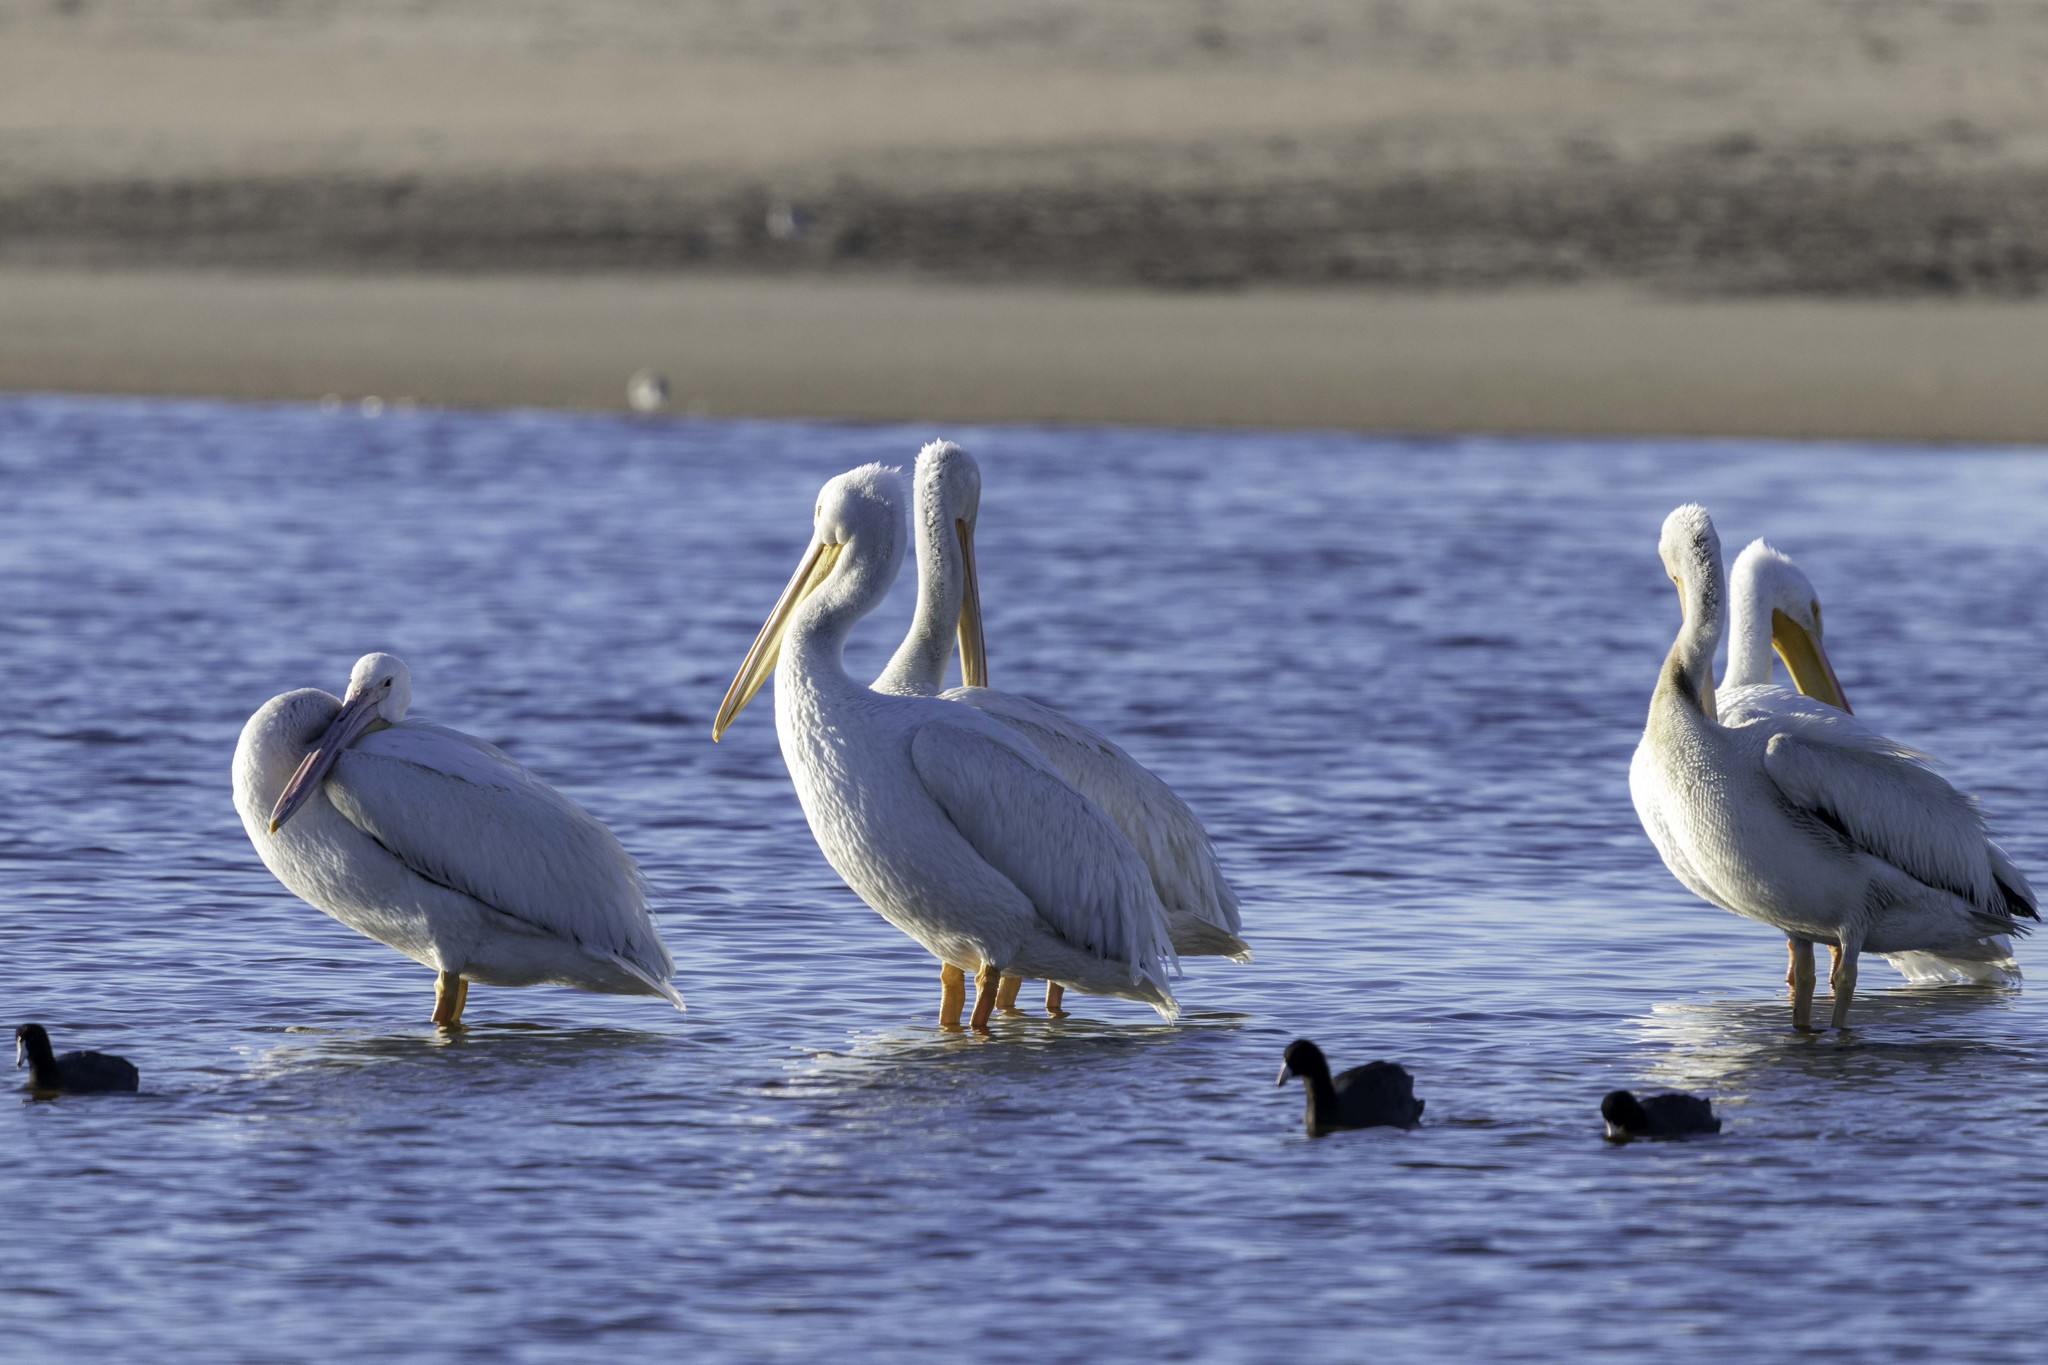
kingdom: Animalia
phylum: Chordata
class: Aves
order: Pelecaniformes
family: Pelecanidae
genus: Pelecanus
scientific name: Pelecanus erythrorhynchos
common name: American white pelican
